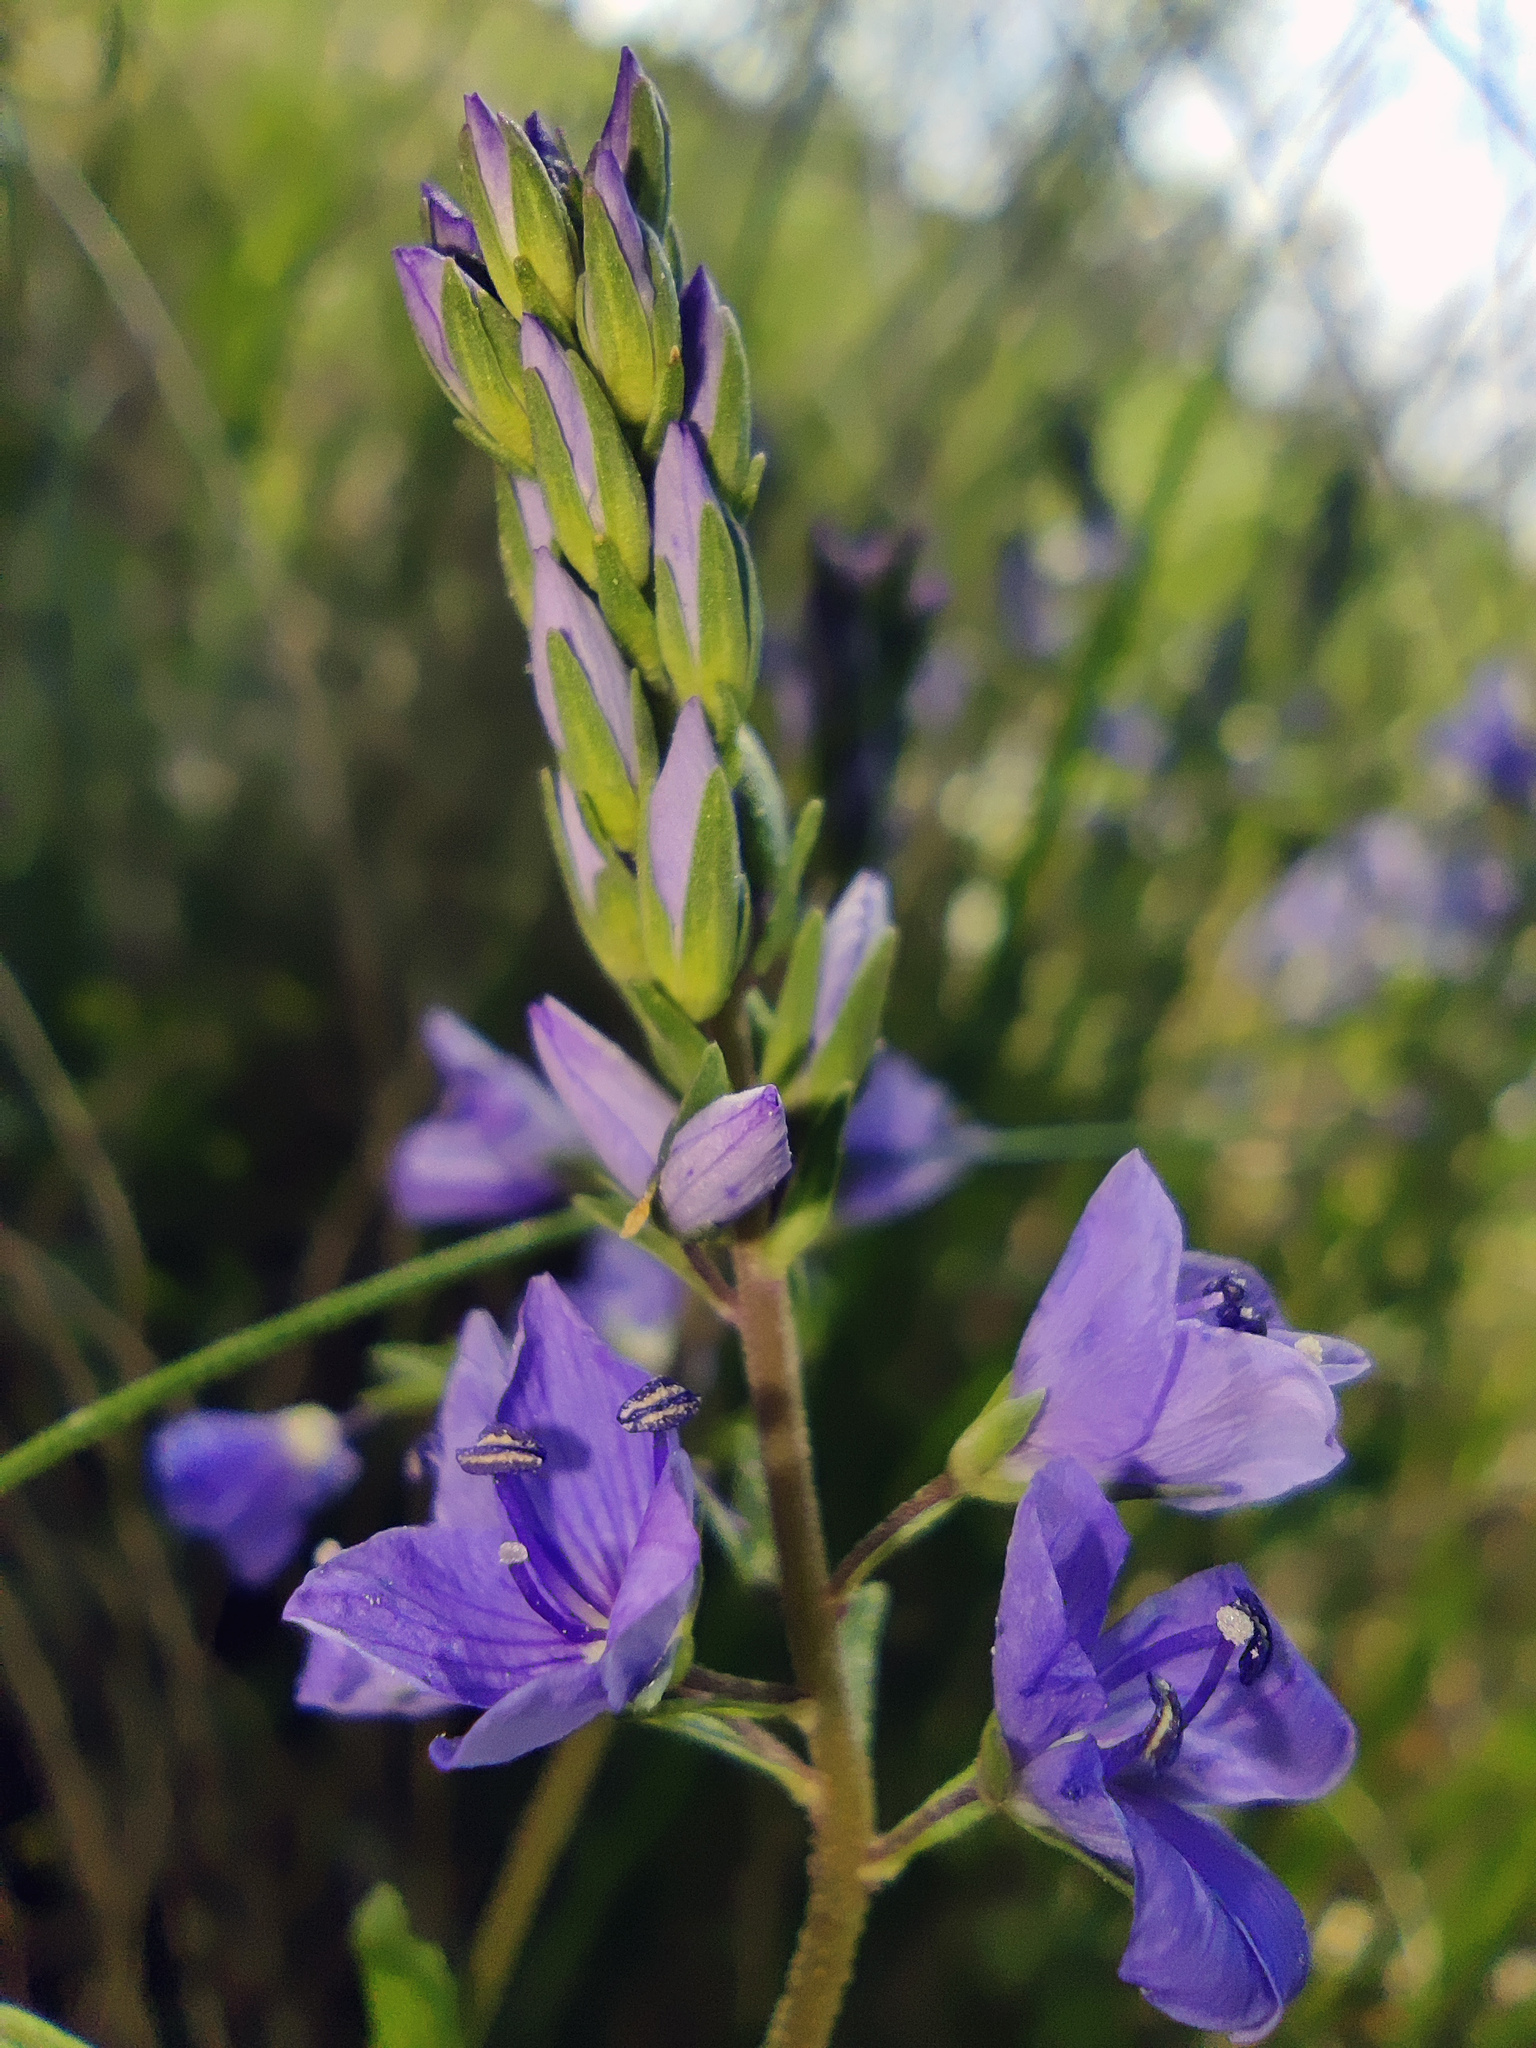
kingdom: Plantae
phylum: Tracheophyta
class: Magnoliopsida
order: Lamiales
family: Plantaginaceae
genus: Veronica
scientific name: Veronica prostrata
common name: Prostrate speedwell
